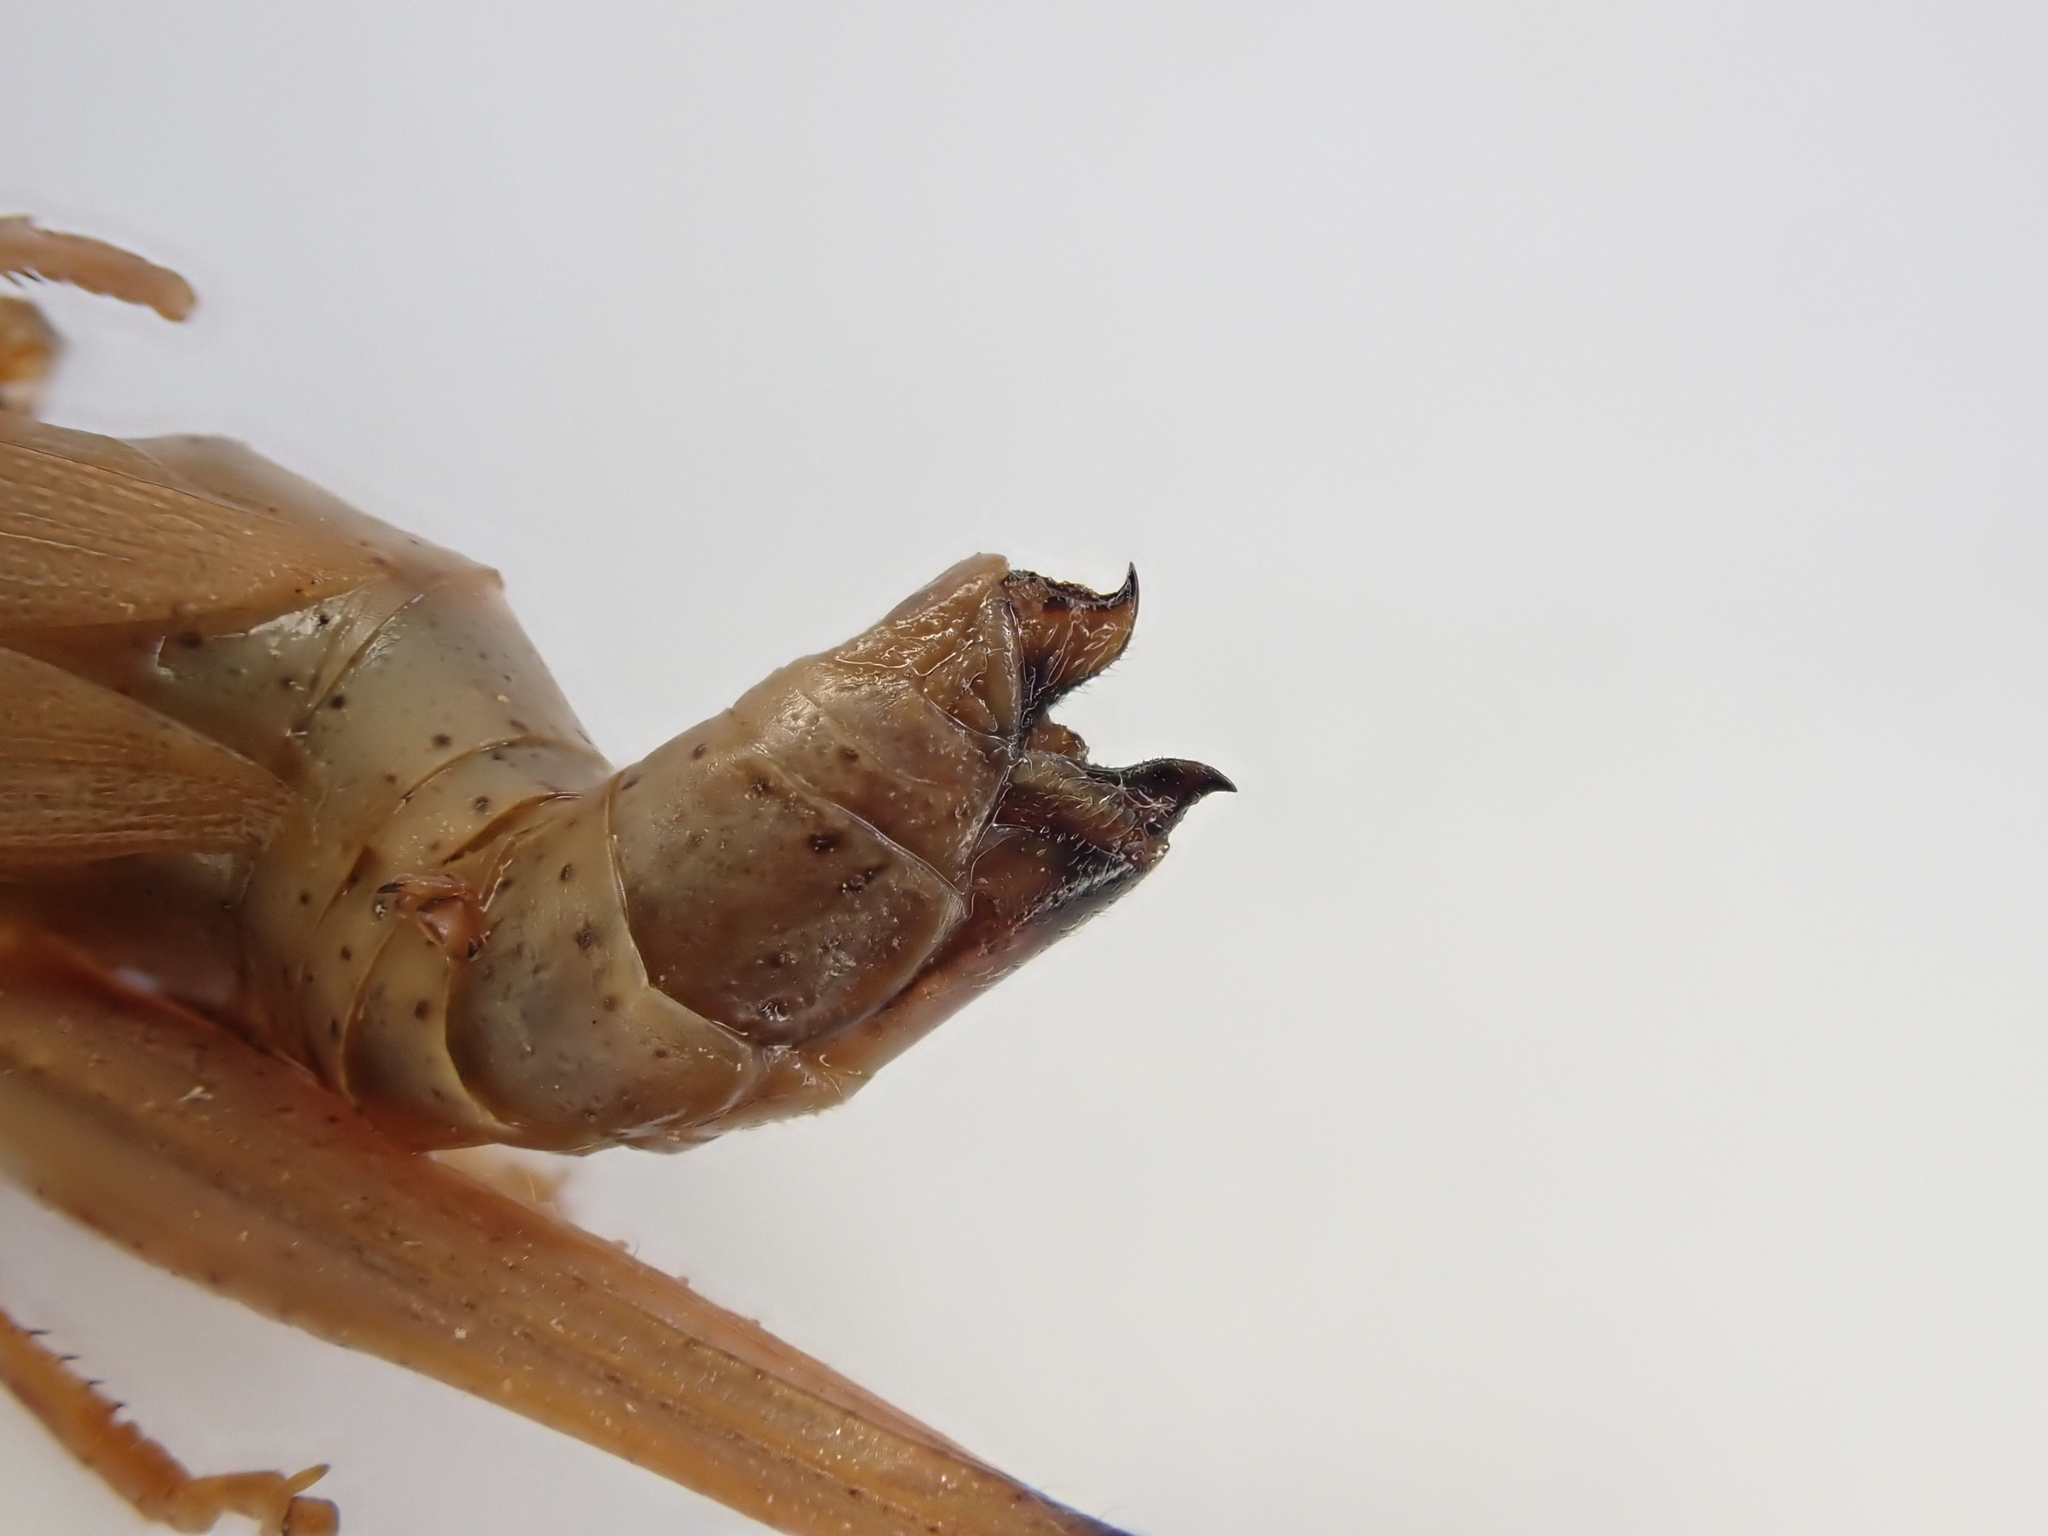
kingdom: Animalia
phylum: Arthropoda
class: Insecta
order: Orthoptera
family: Acrididae
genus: Chrysochraon
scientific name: Chrysochraon dispar
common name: Large gold grasshopper
